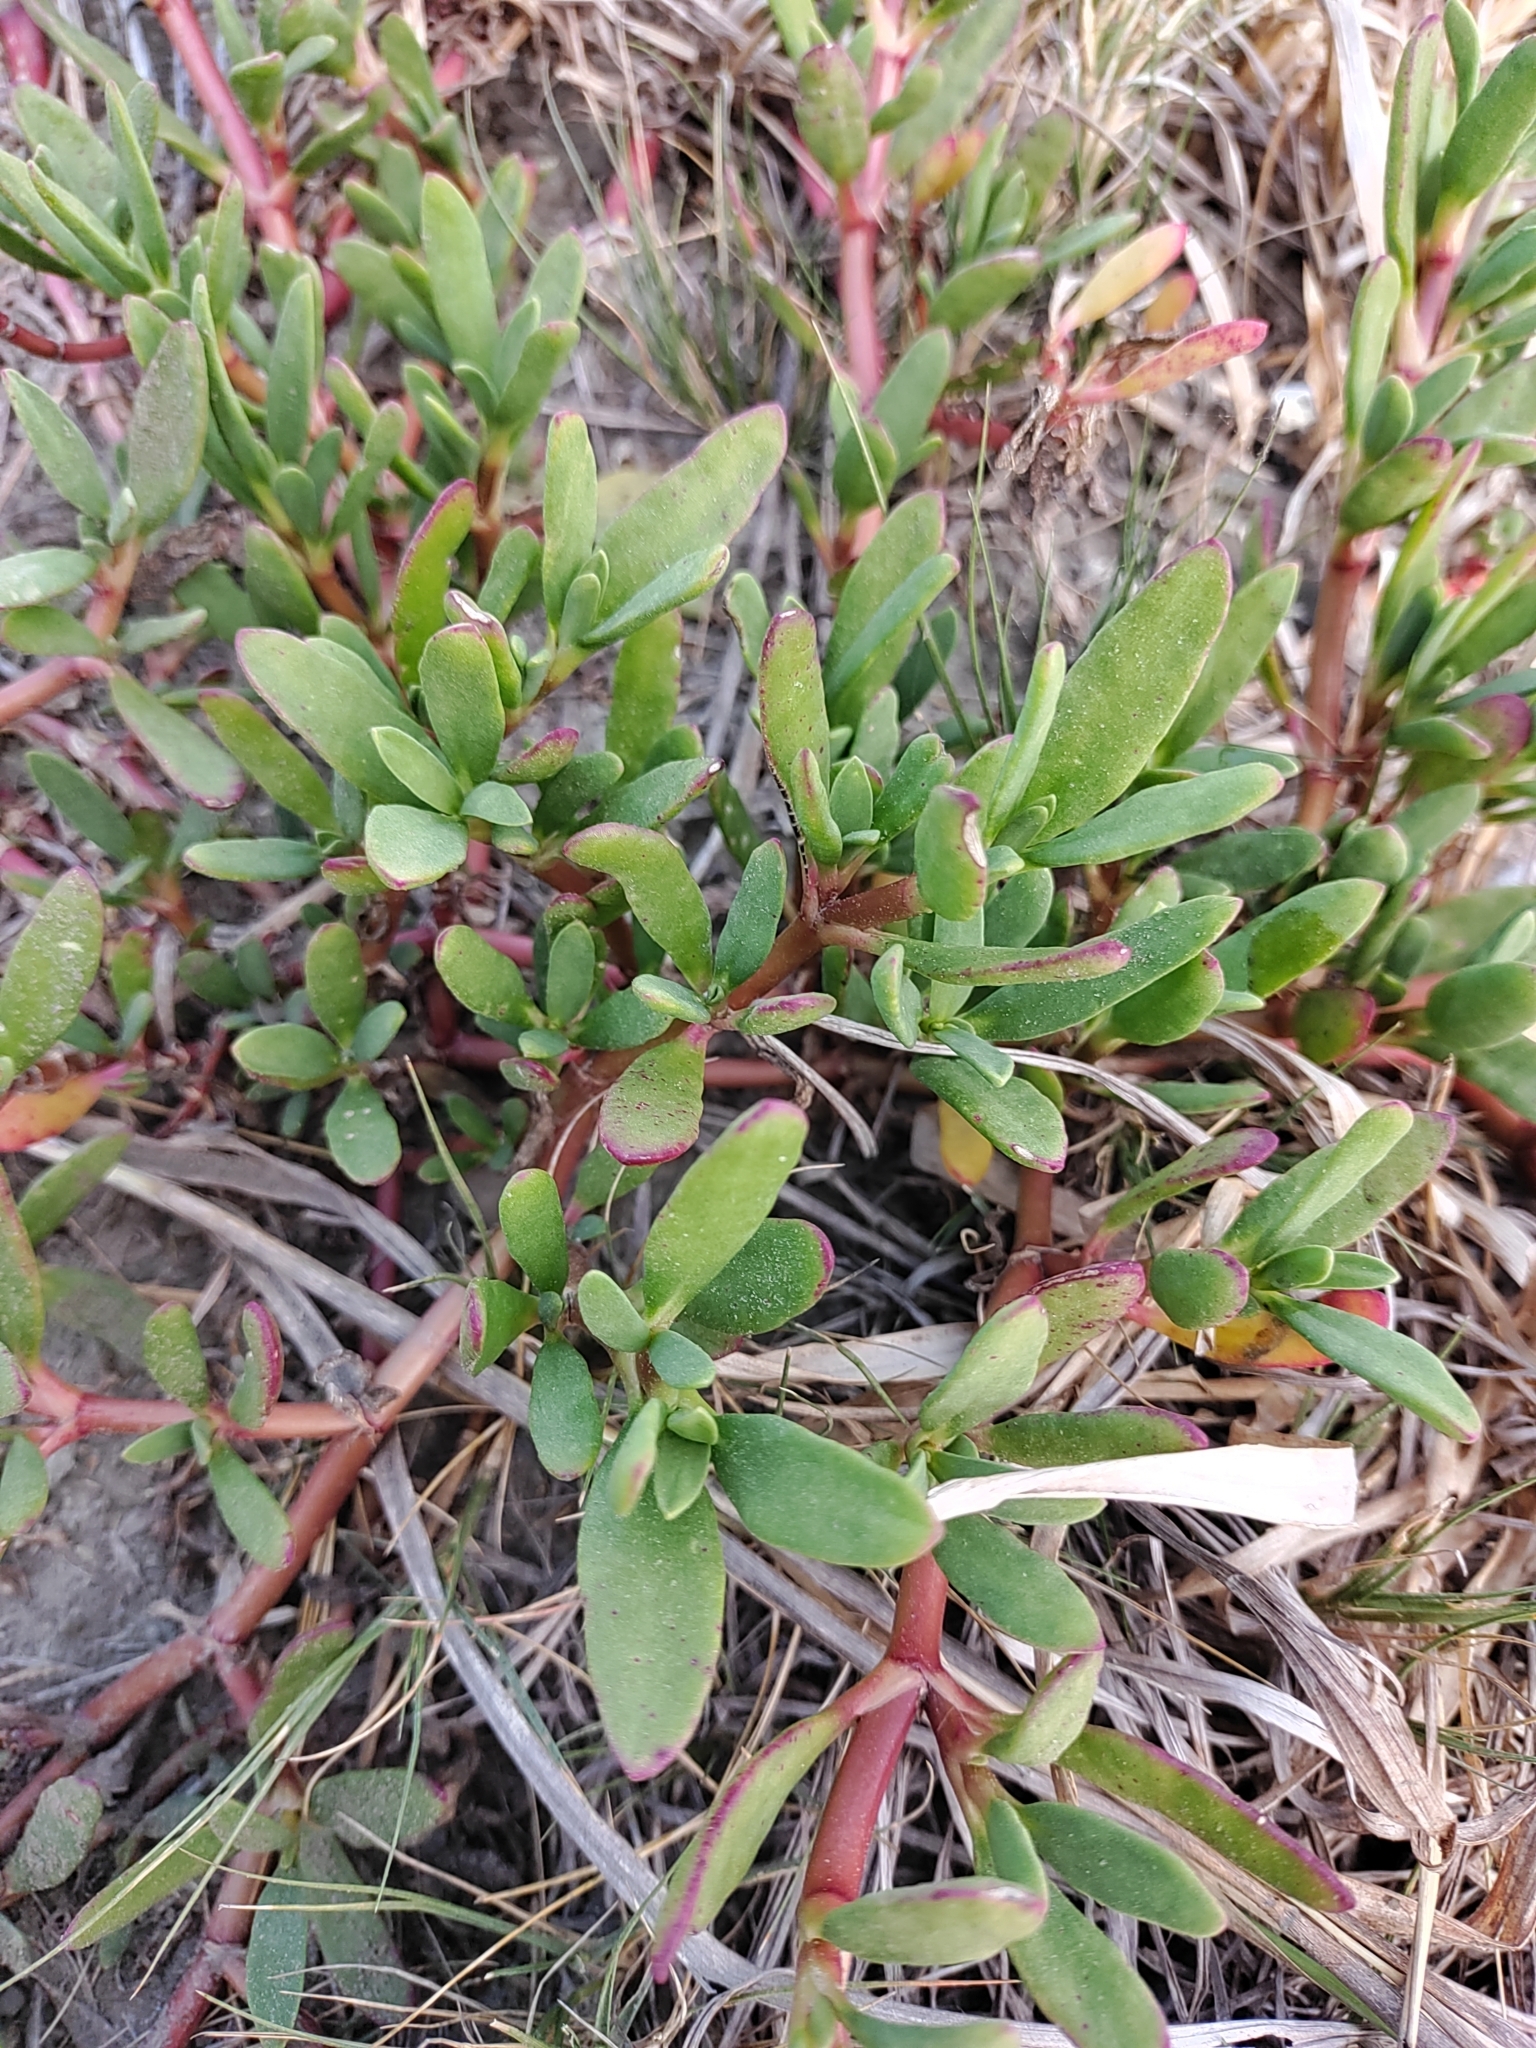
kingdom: Plantae
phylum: Tracheophyta
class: Magnoliopsida
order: Caryophyllales
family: Aizoaceae
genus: Sesuvium
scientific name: Sesuvium portulacastrum
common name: Sea-purslane
